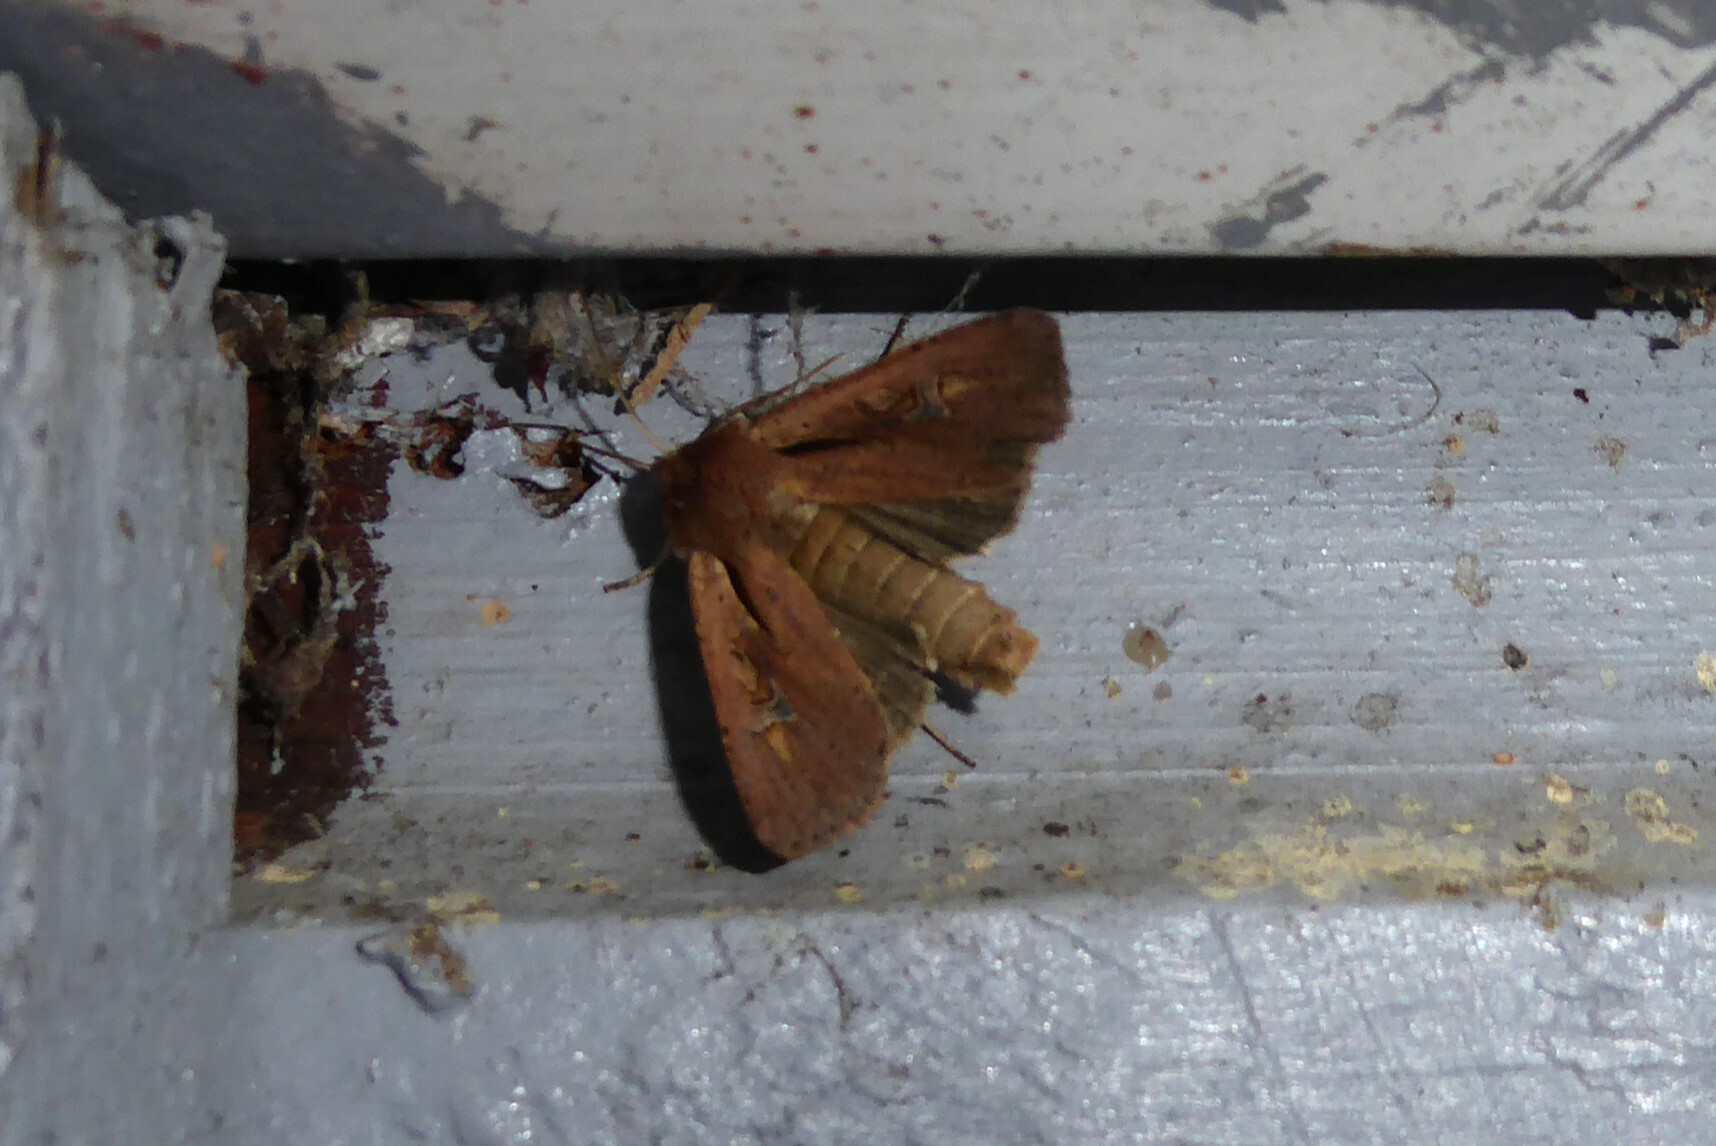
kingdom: Animalia
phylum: Arthropoda
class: Insecta
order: Lepidoptera
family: Noctuidae
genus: Ichneutica
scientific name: Ichneutica atristriga
